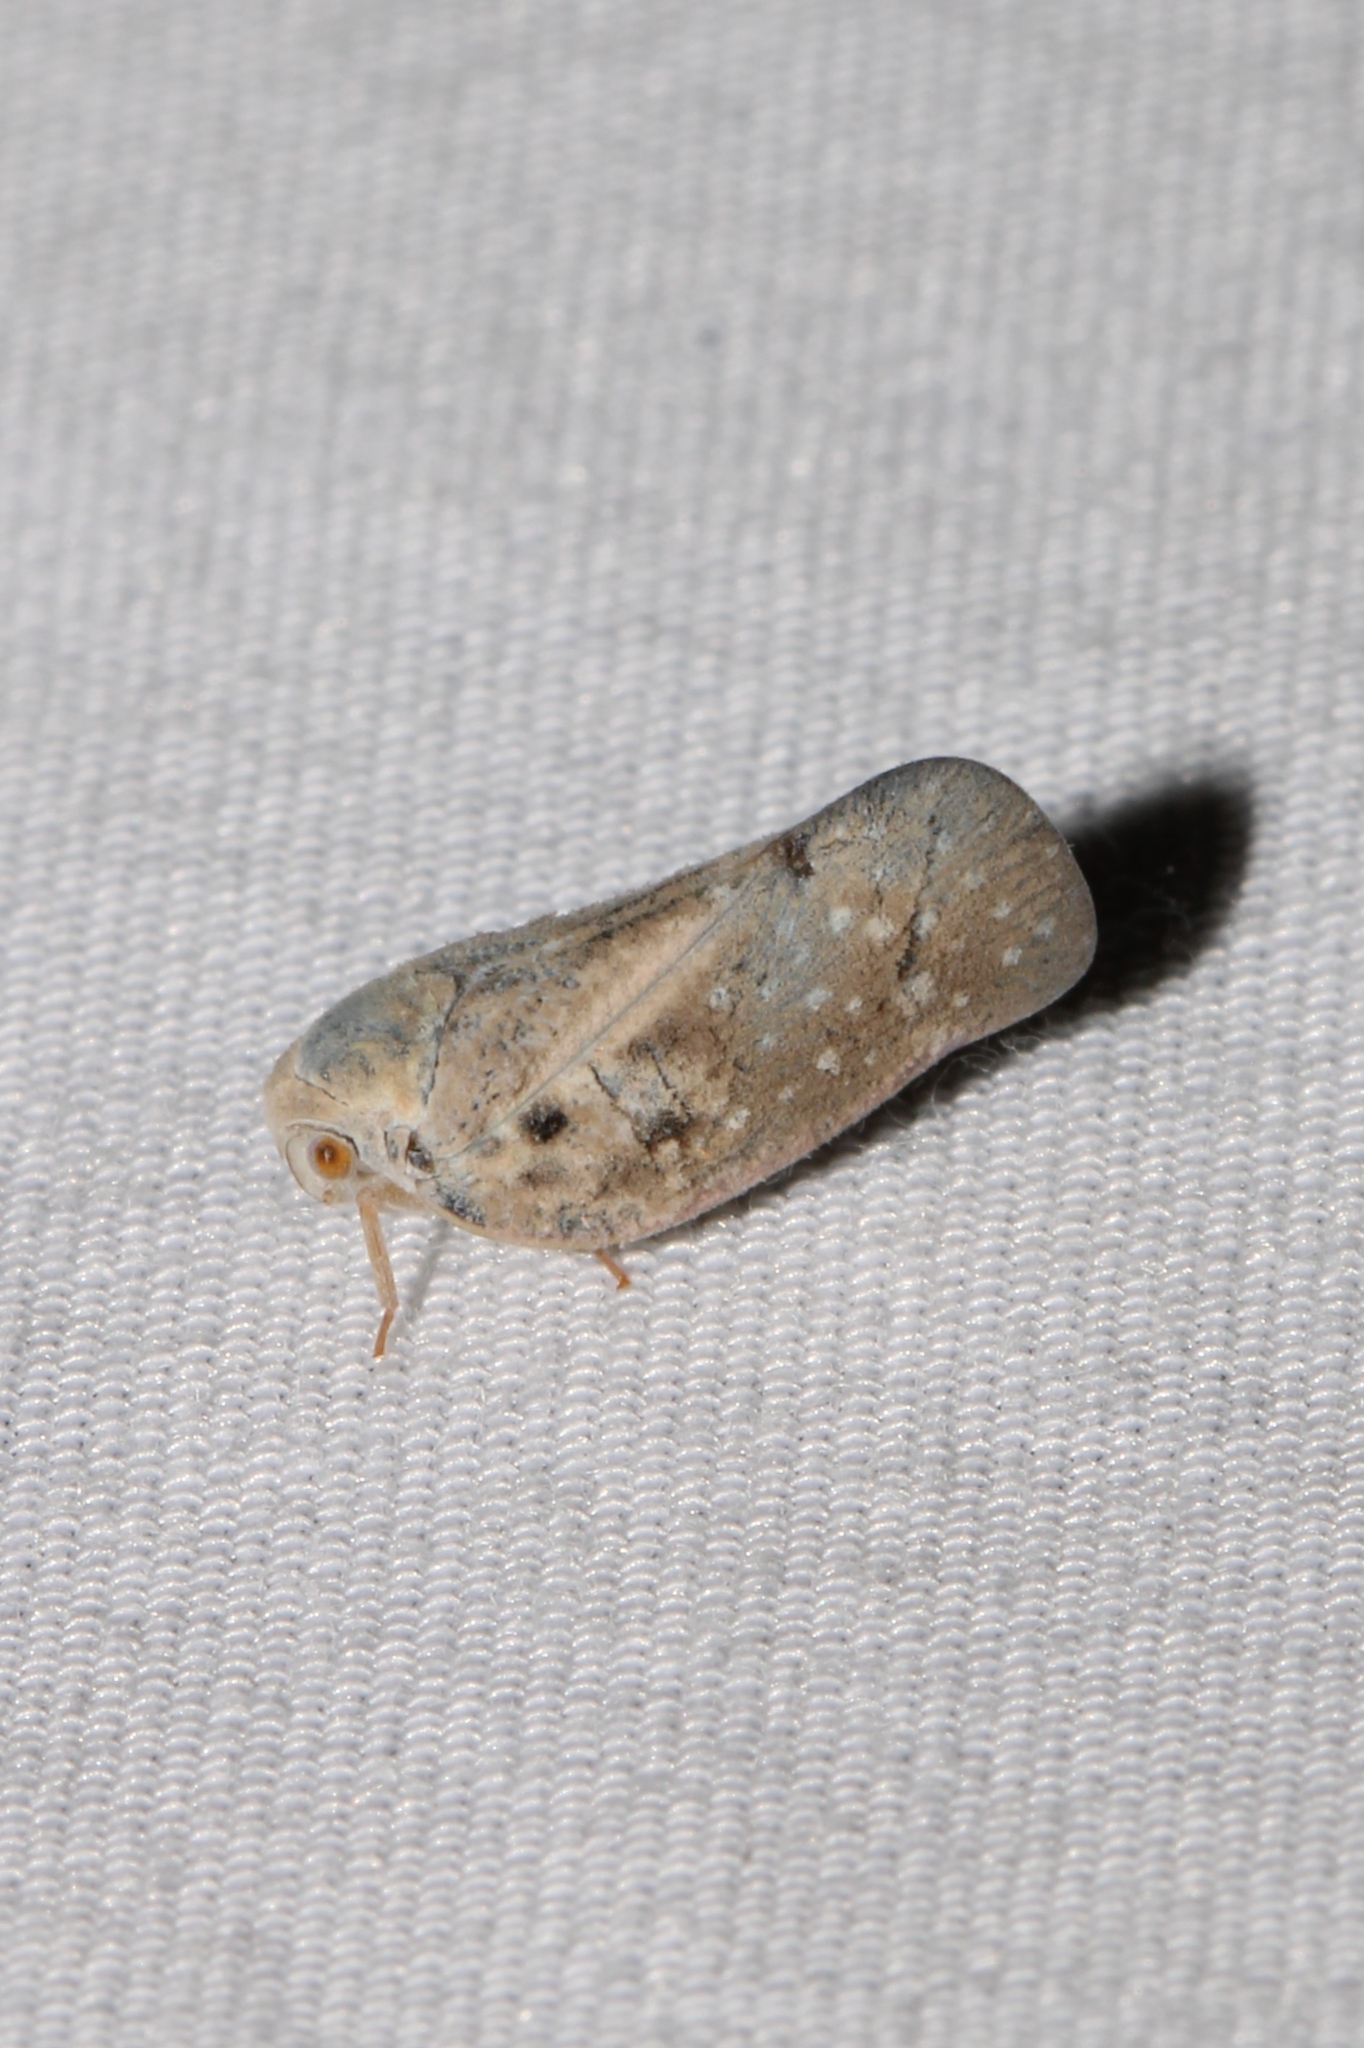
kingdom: Animalia
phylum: Arthropoda
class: Insecta
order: Hemiptera
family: Flatidae
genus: Metcalfa
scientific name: Metcalfa pruinosa
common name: Citrus flatid planthopper
